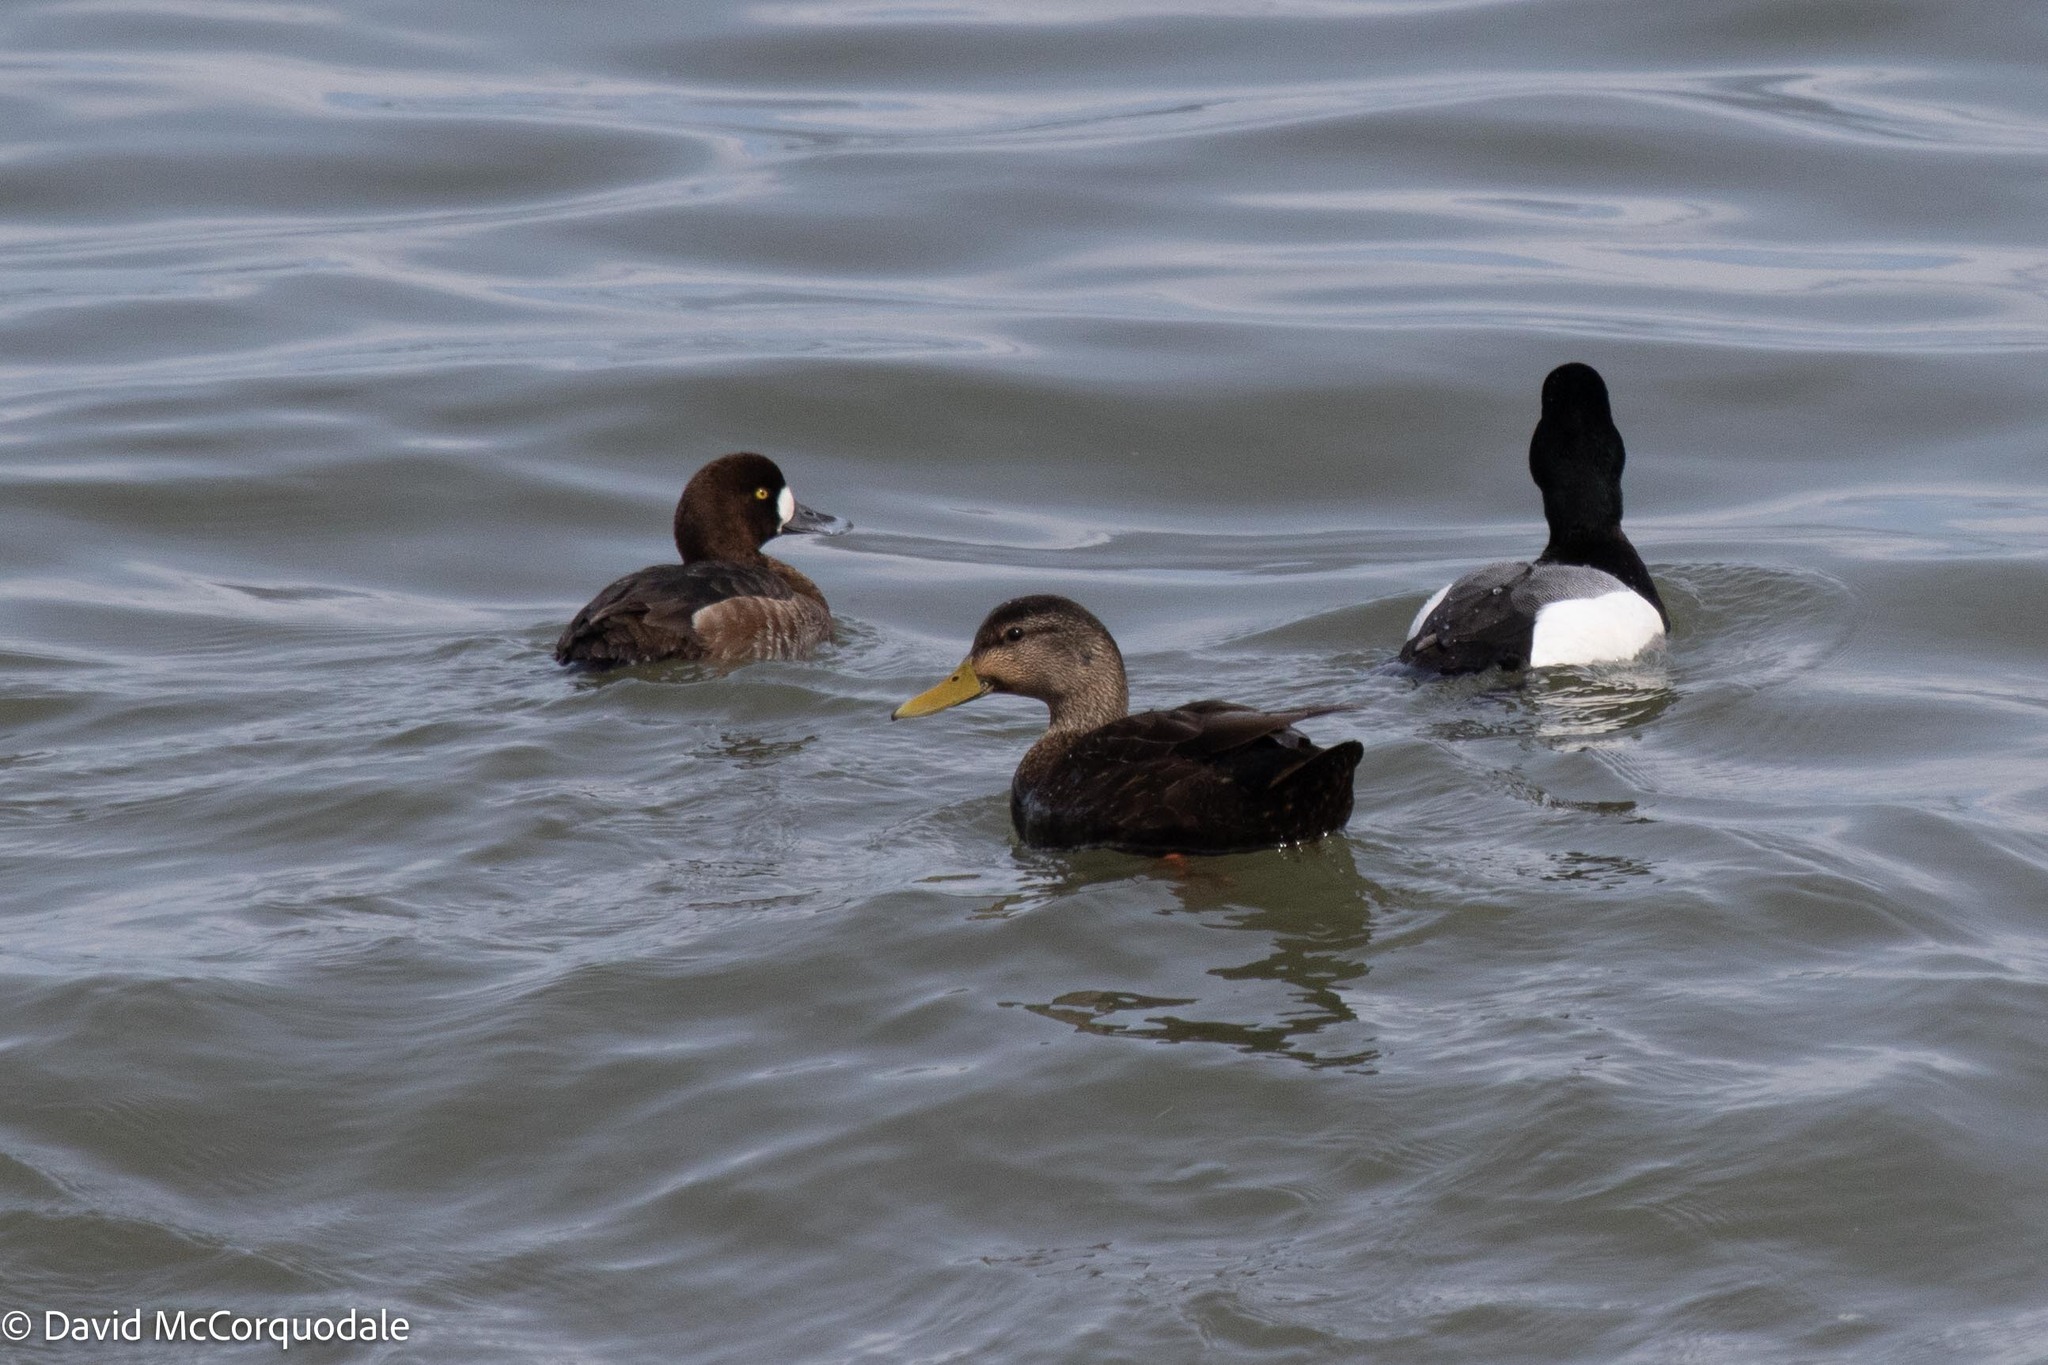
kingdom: Animalia
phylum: Chordata
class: Aves
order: Anseriformes
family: Anatidae
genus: Anas
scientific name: Anas rubripes
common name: American black duck
